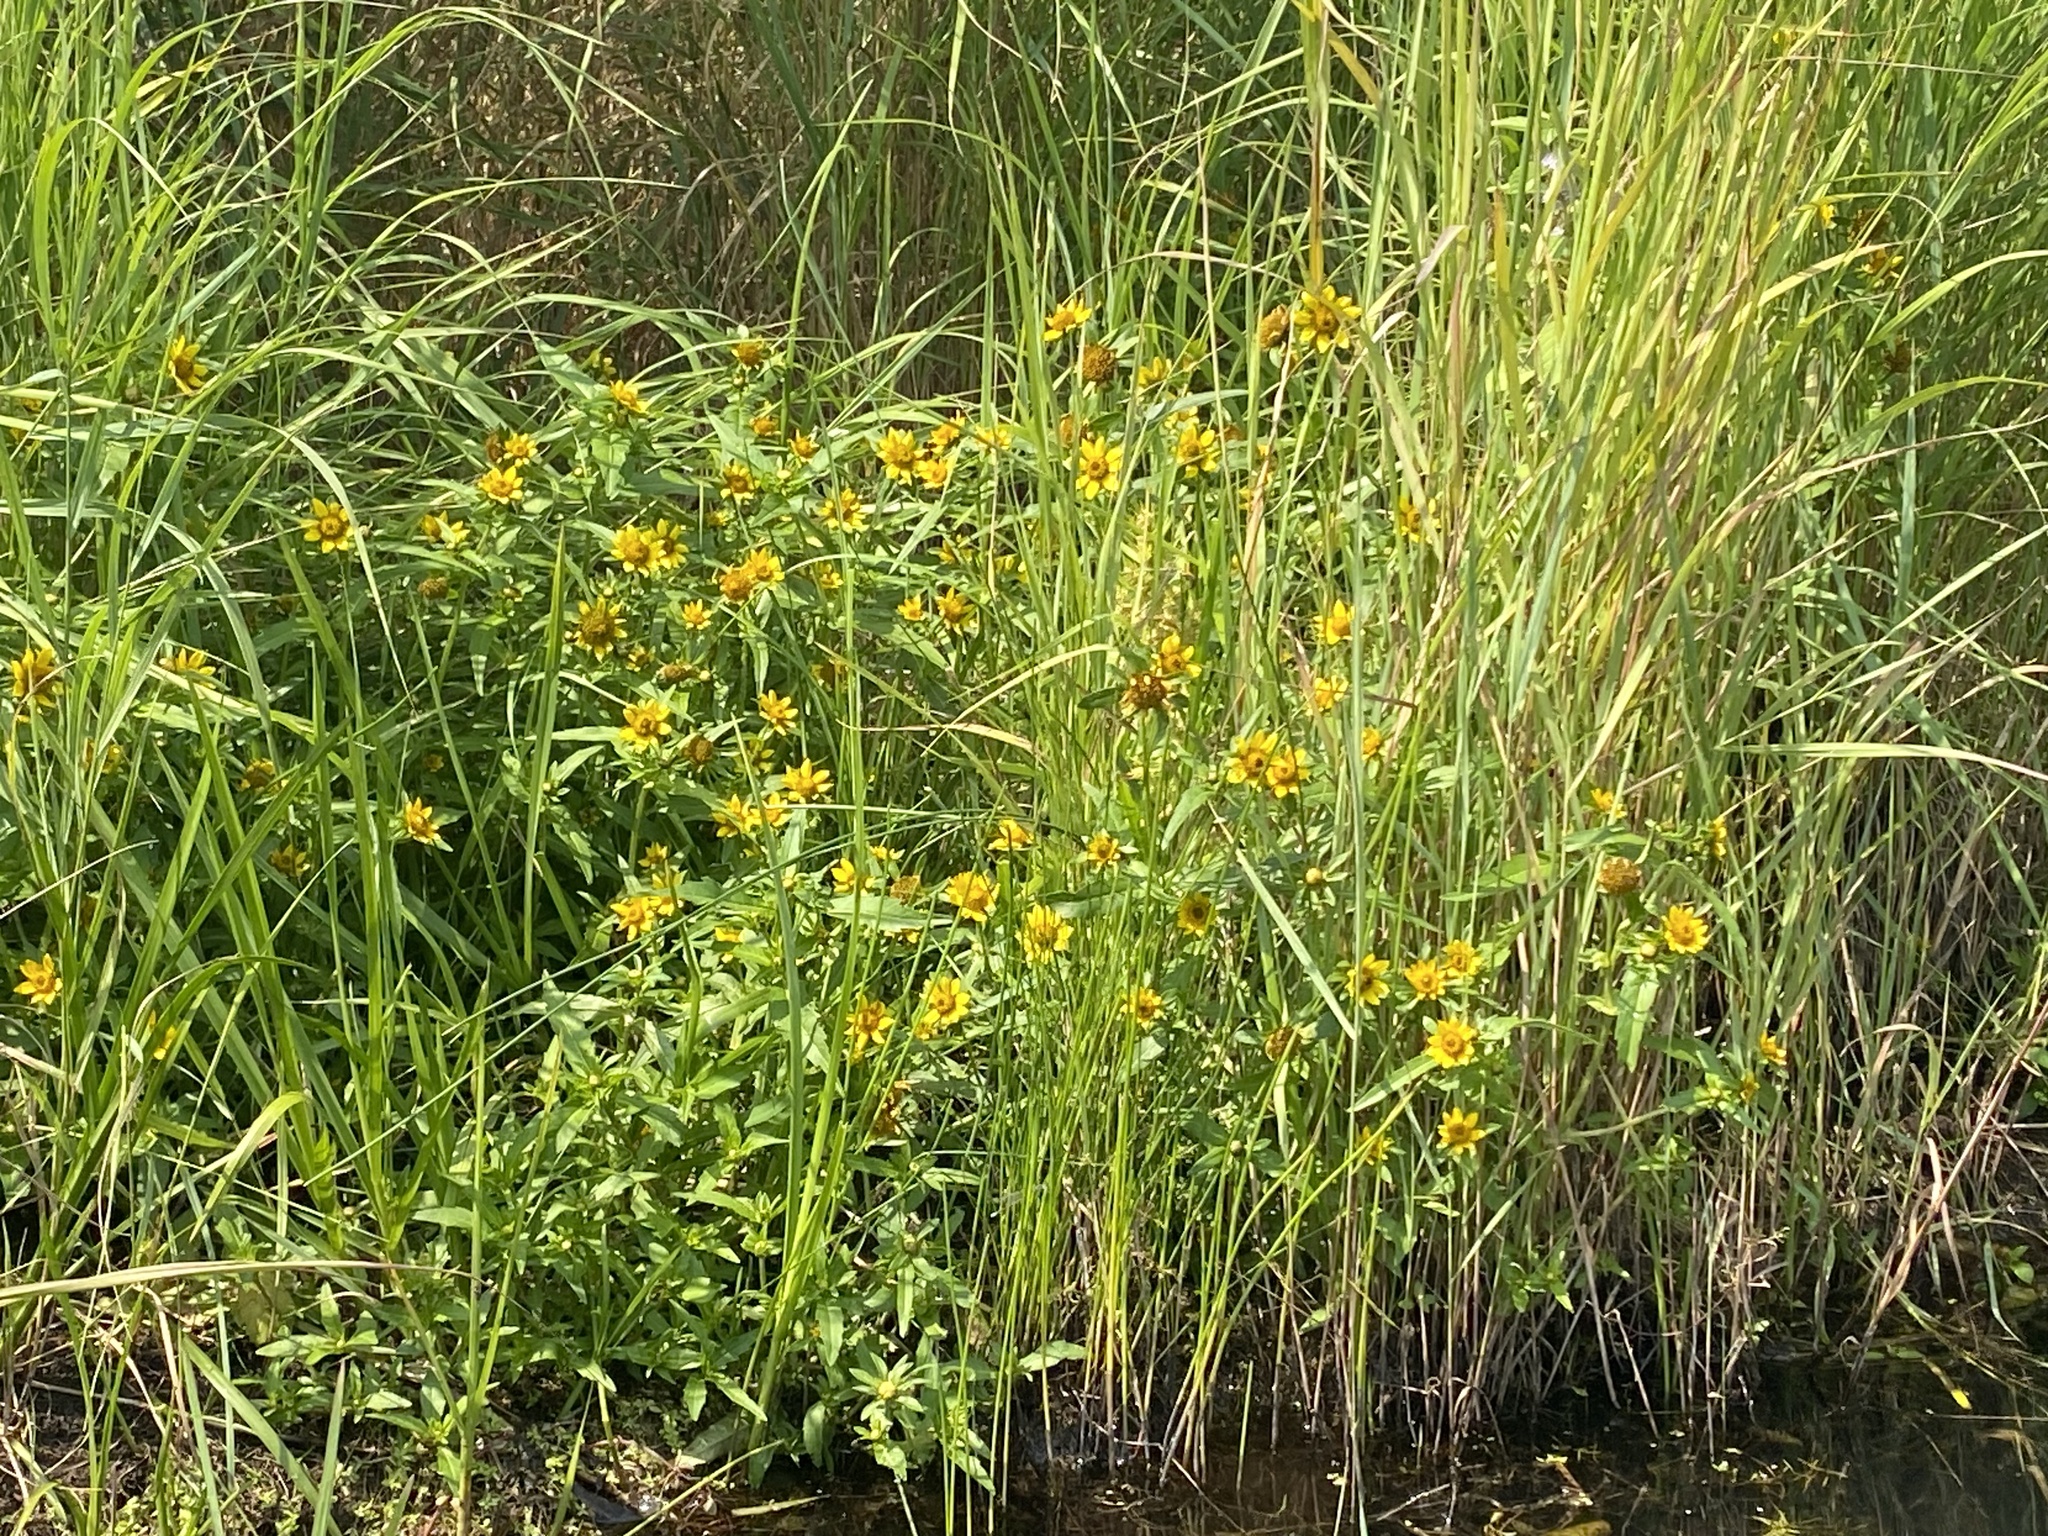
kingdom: Plantae
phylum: Tracheophyta
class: Magnoliopsida
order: Asterales
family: Asteraceae
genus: Bidens
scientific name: Bidens cernua
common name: Nodding bur-marigold
